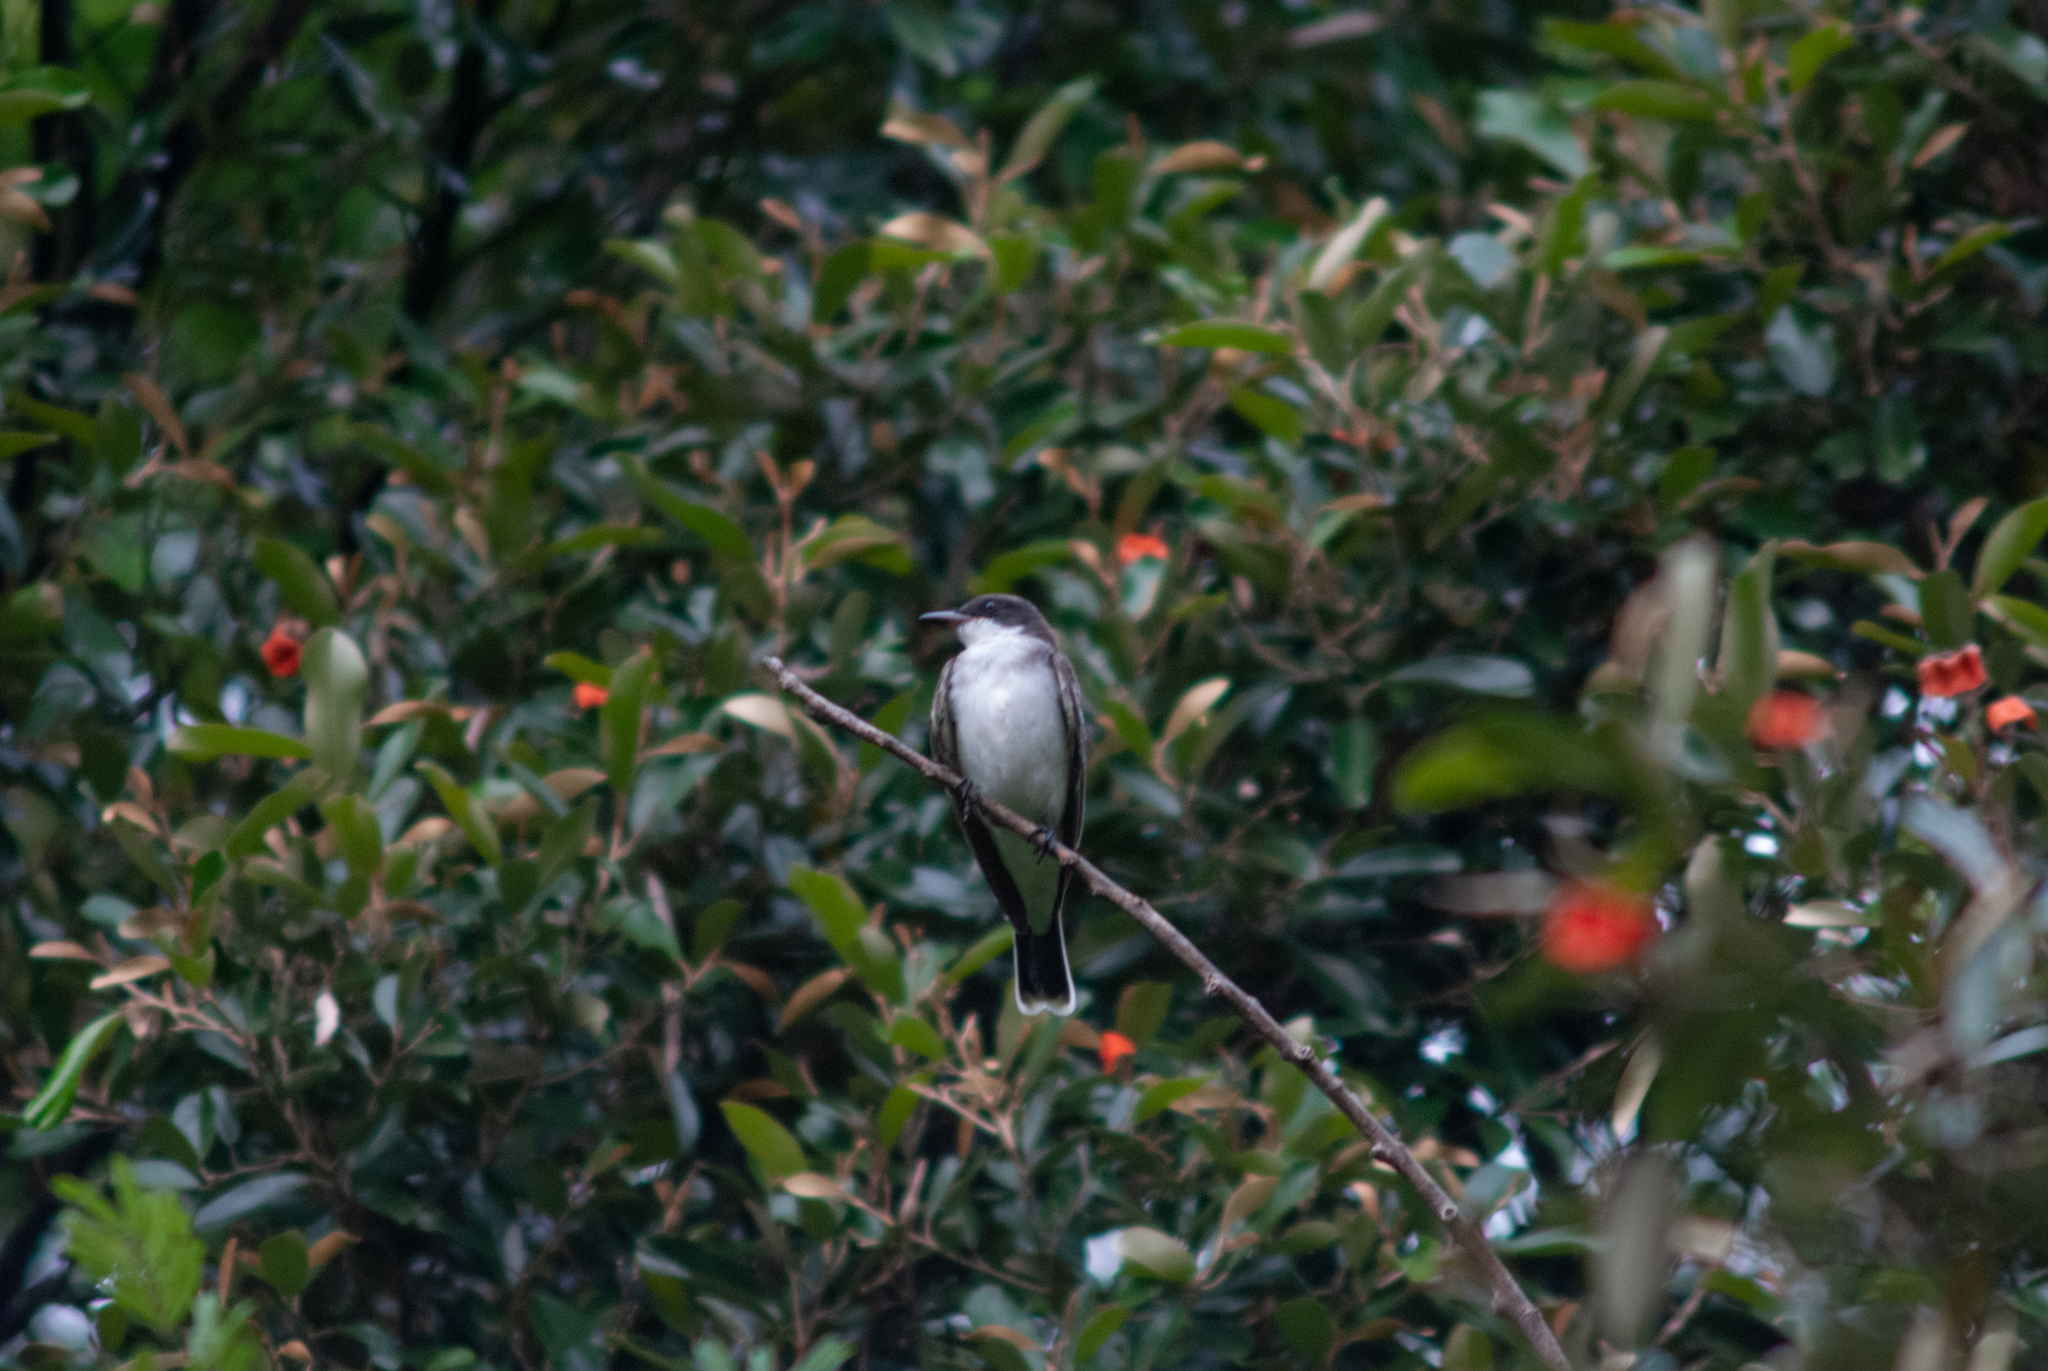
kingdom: Animalia
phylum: Chordata
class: Aves
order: Passeriformes
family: Tyrannidae
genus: Tyrannus
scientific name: Tyrannus tyrannus
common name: Eastern kingbird
